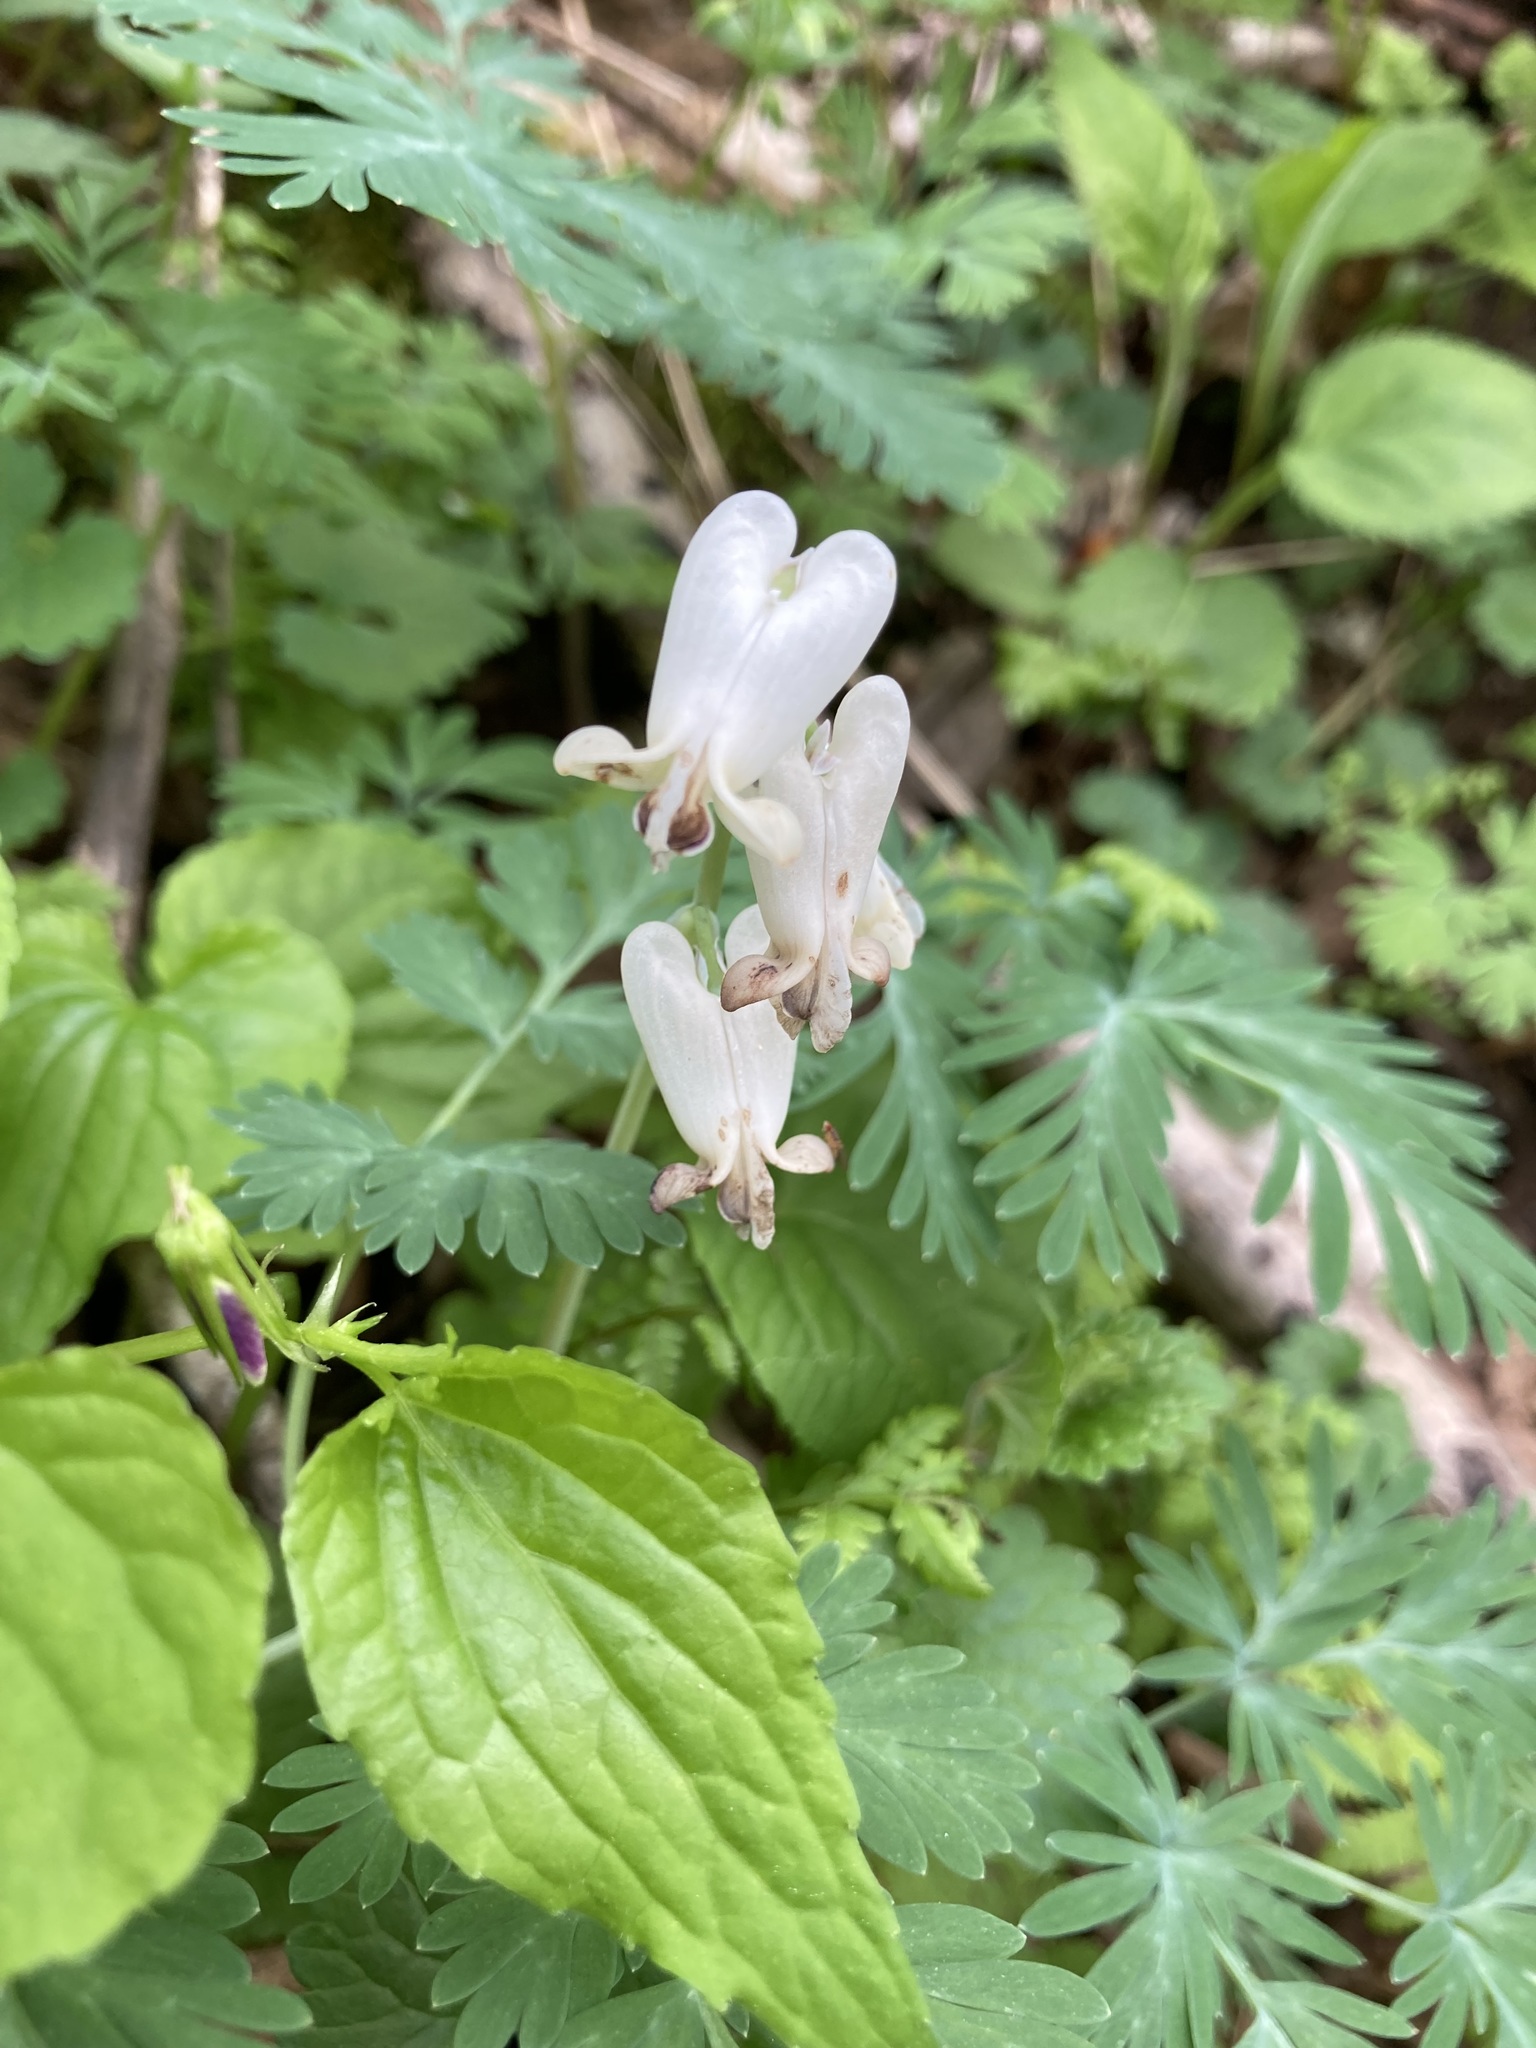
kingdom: Plantae
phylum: Tracheophyta
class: Magnoliopsida
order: Ranunculales
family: Papaveraceae
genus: Dicentra
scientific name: Dicentra canadensis
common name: Squirrel-corn
